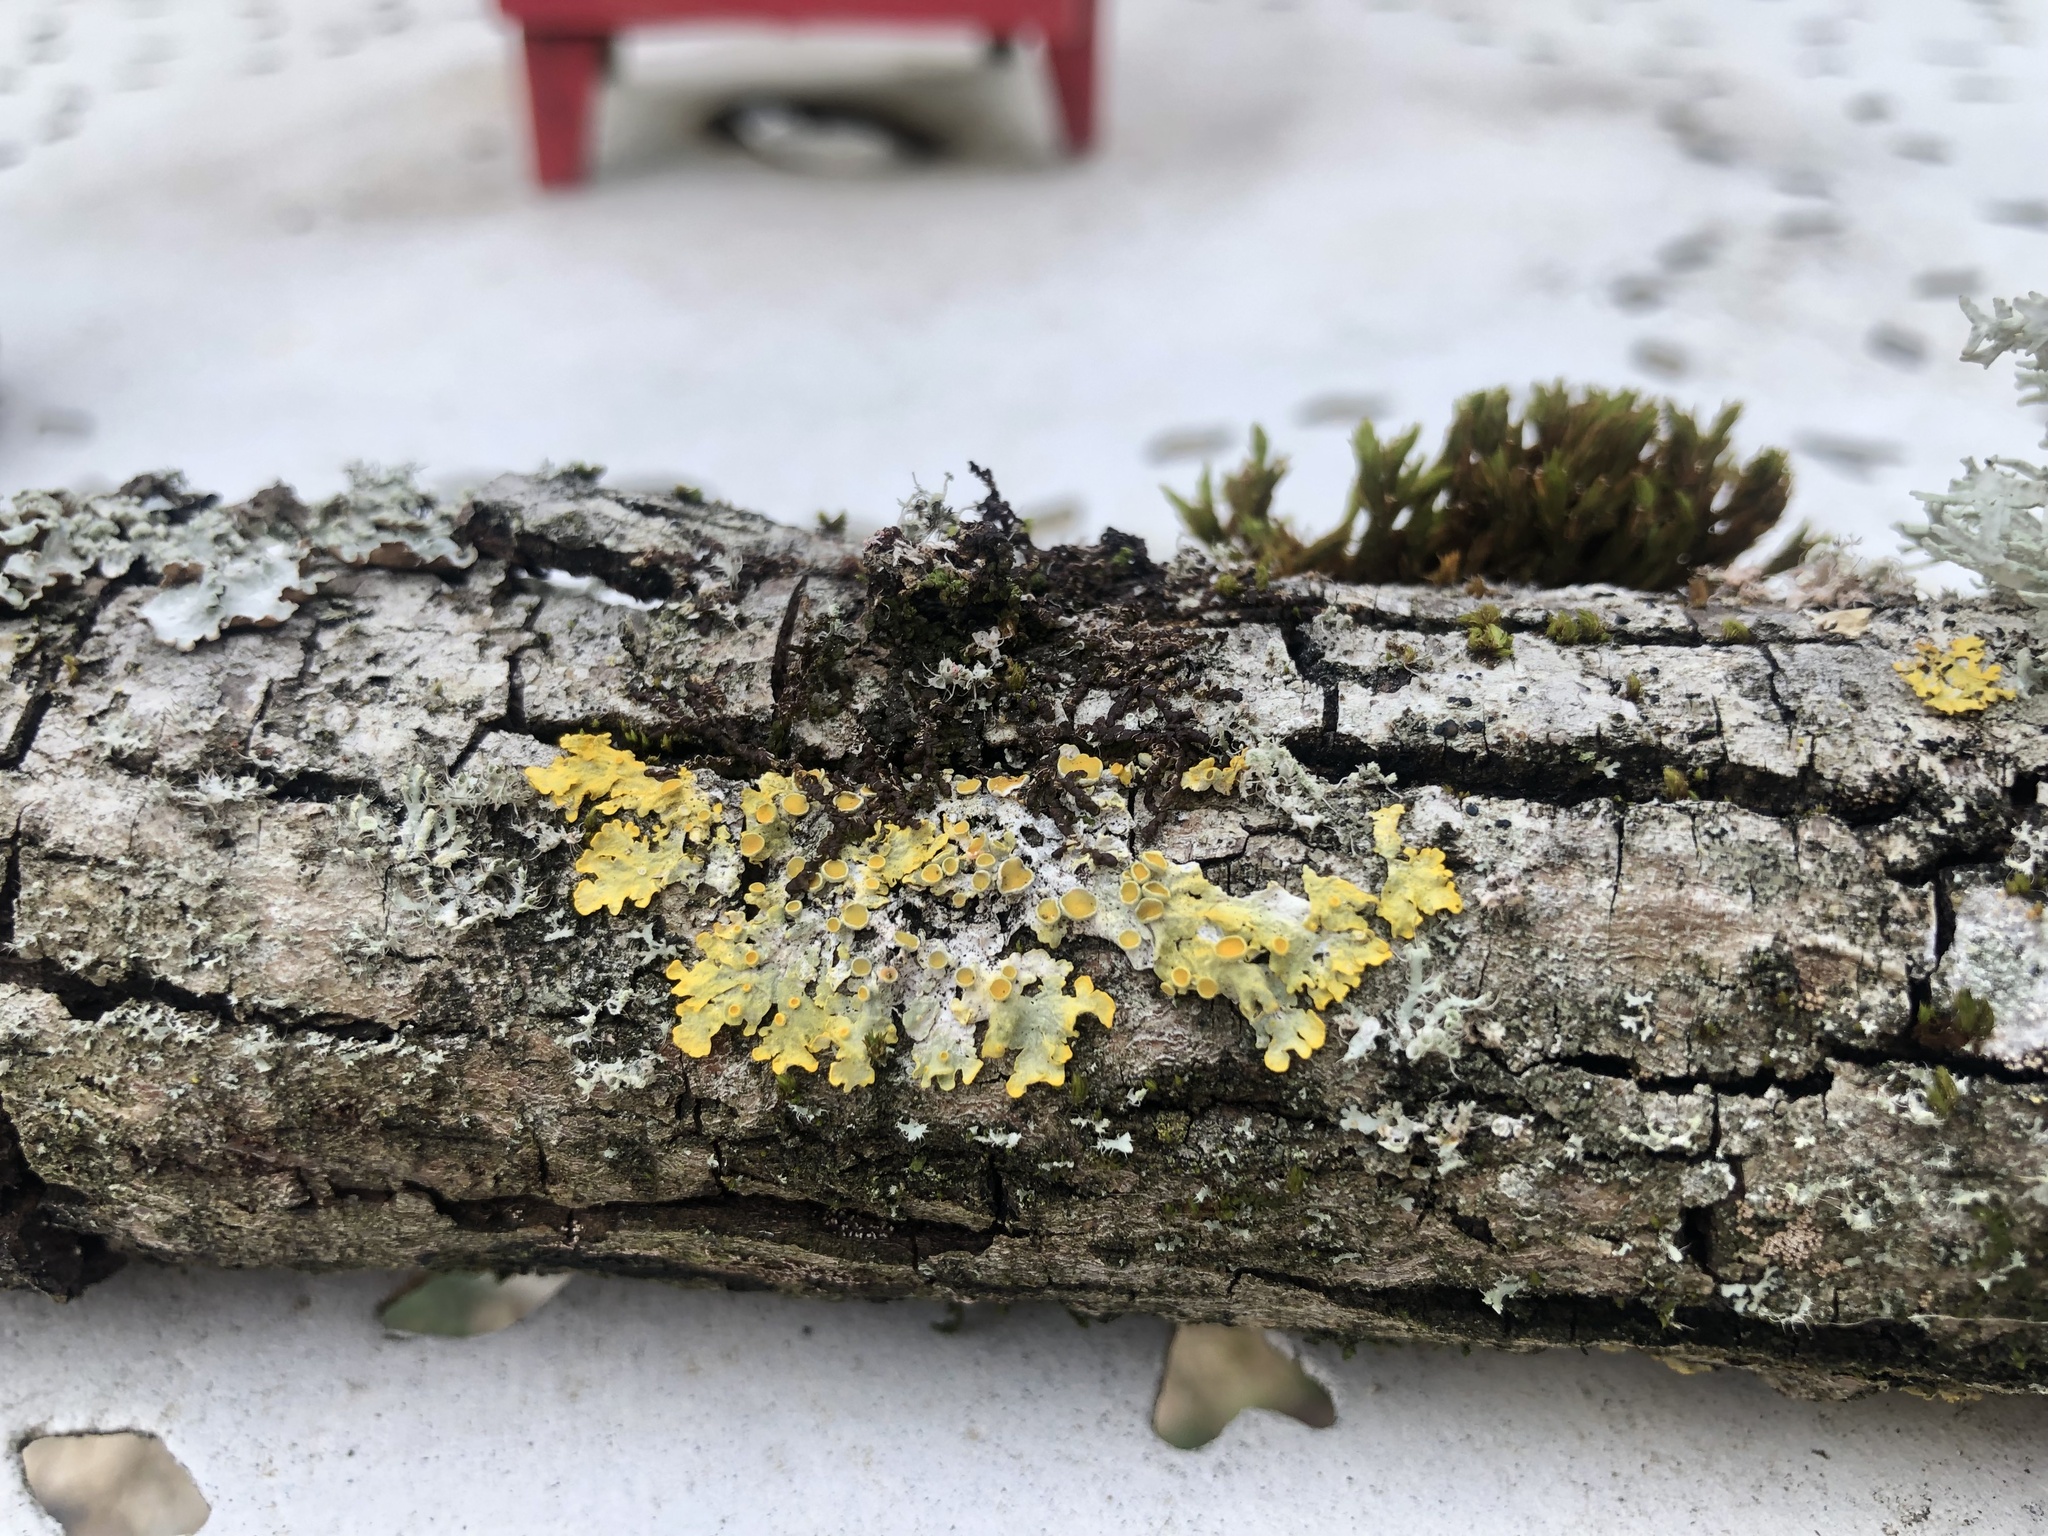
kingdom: Fungi
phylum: Ascomycota
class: Lecanoromycetes
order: Teloschistales
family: Teloschistaceae
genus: Xanthoria
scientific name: Xanthoria parietina
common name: Common orange lichen
